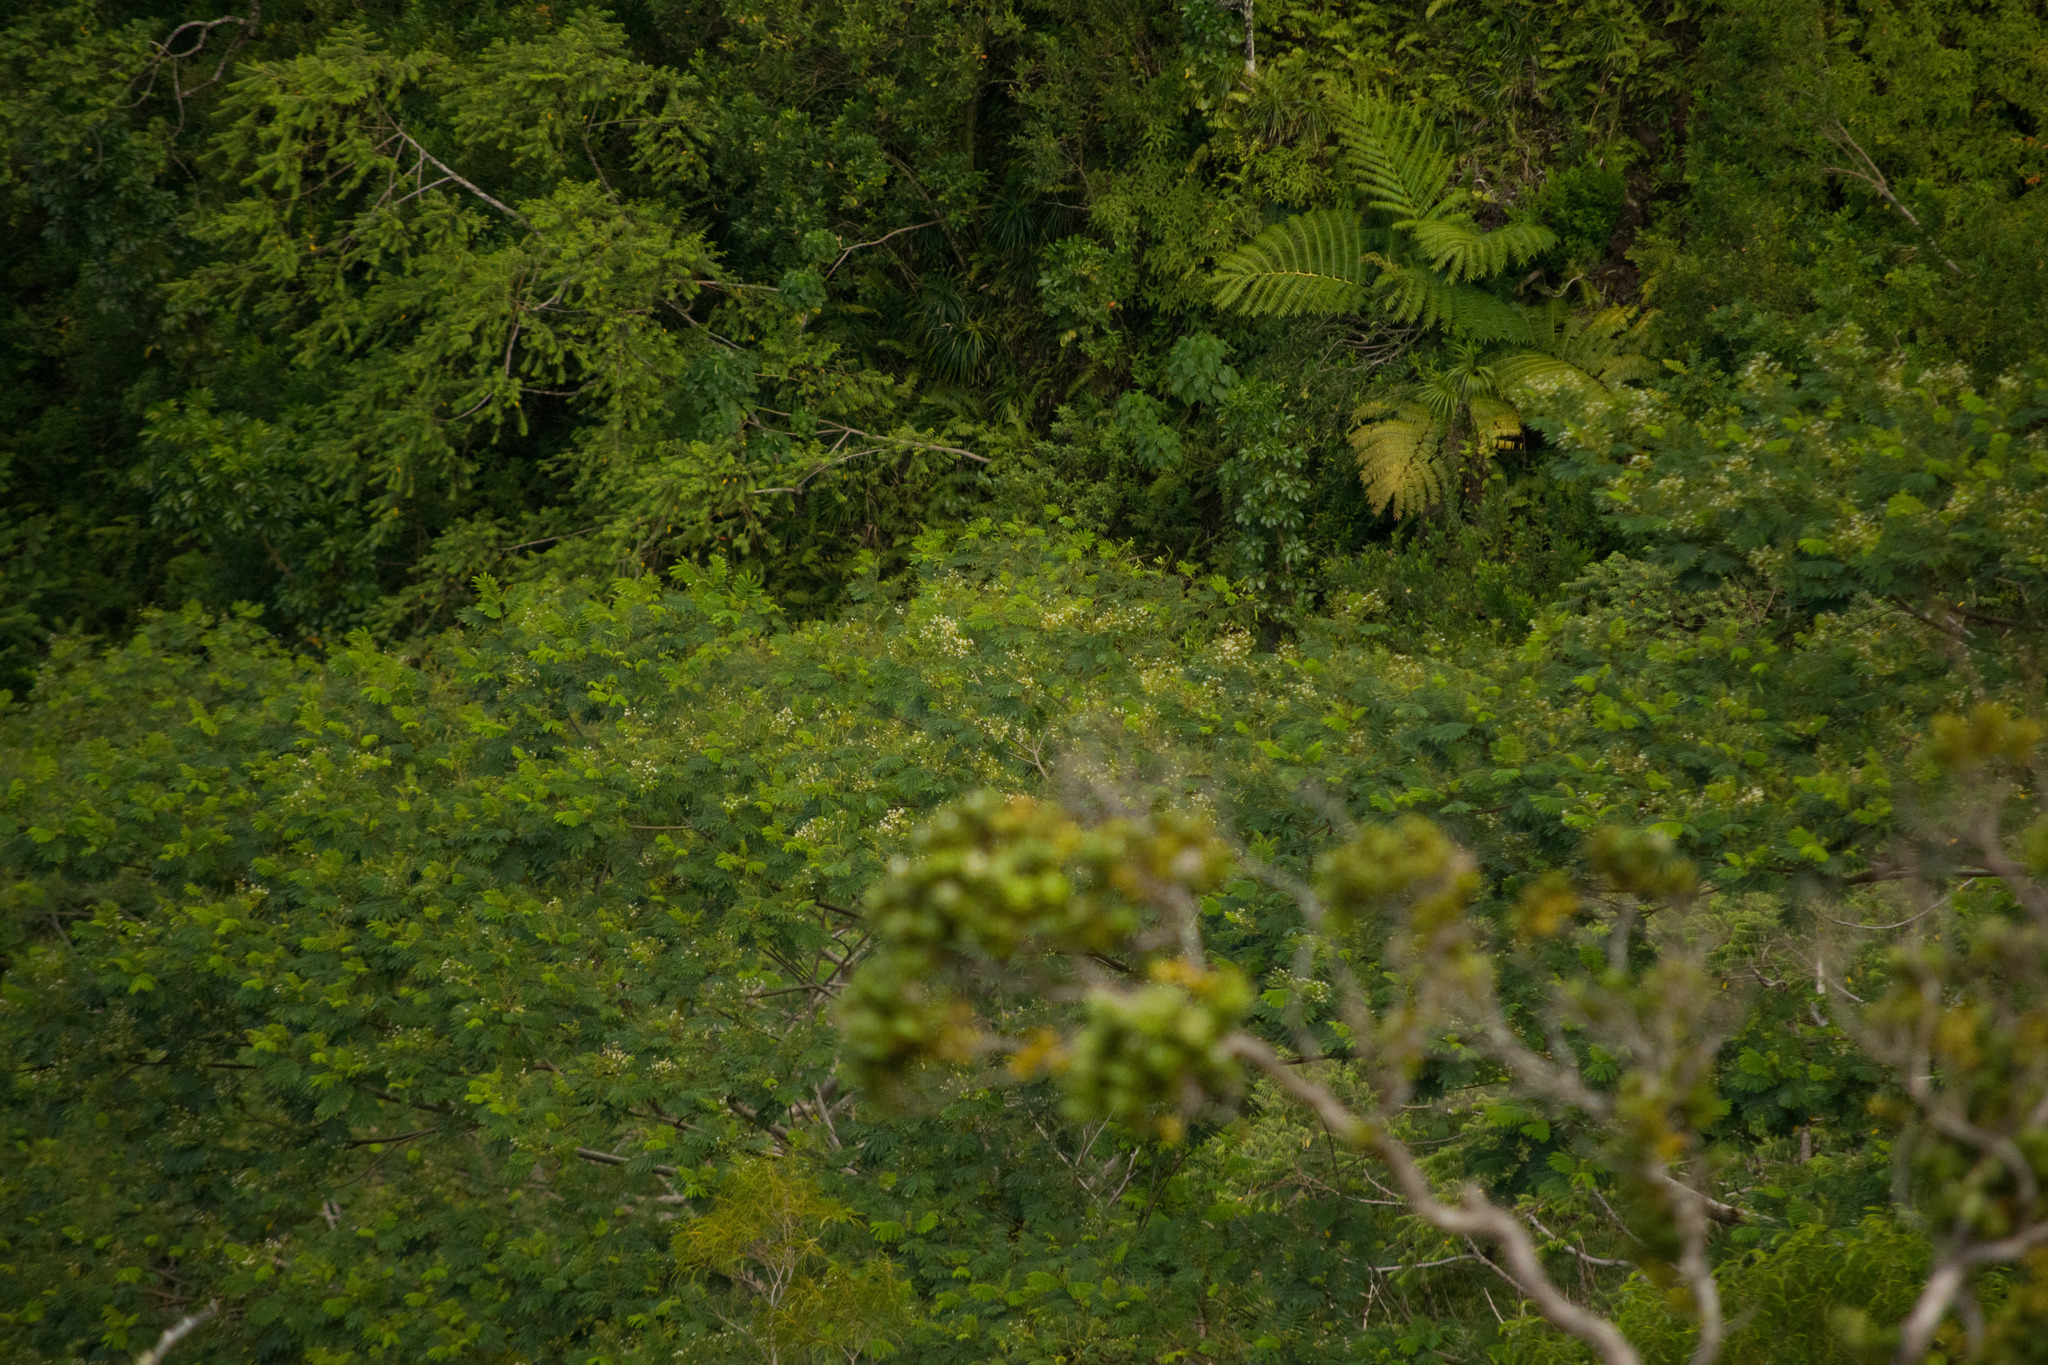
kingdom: Plantae
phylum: Tracheophyta
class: Magnoliopsida
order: Fabales
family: Fabaceae
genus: Falcataria
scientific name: Falcataria falcata
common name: Moluccan albizia
